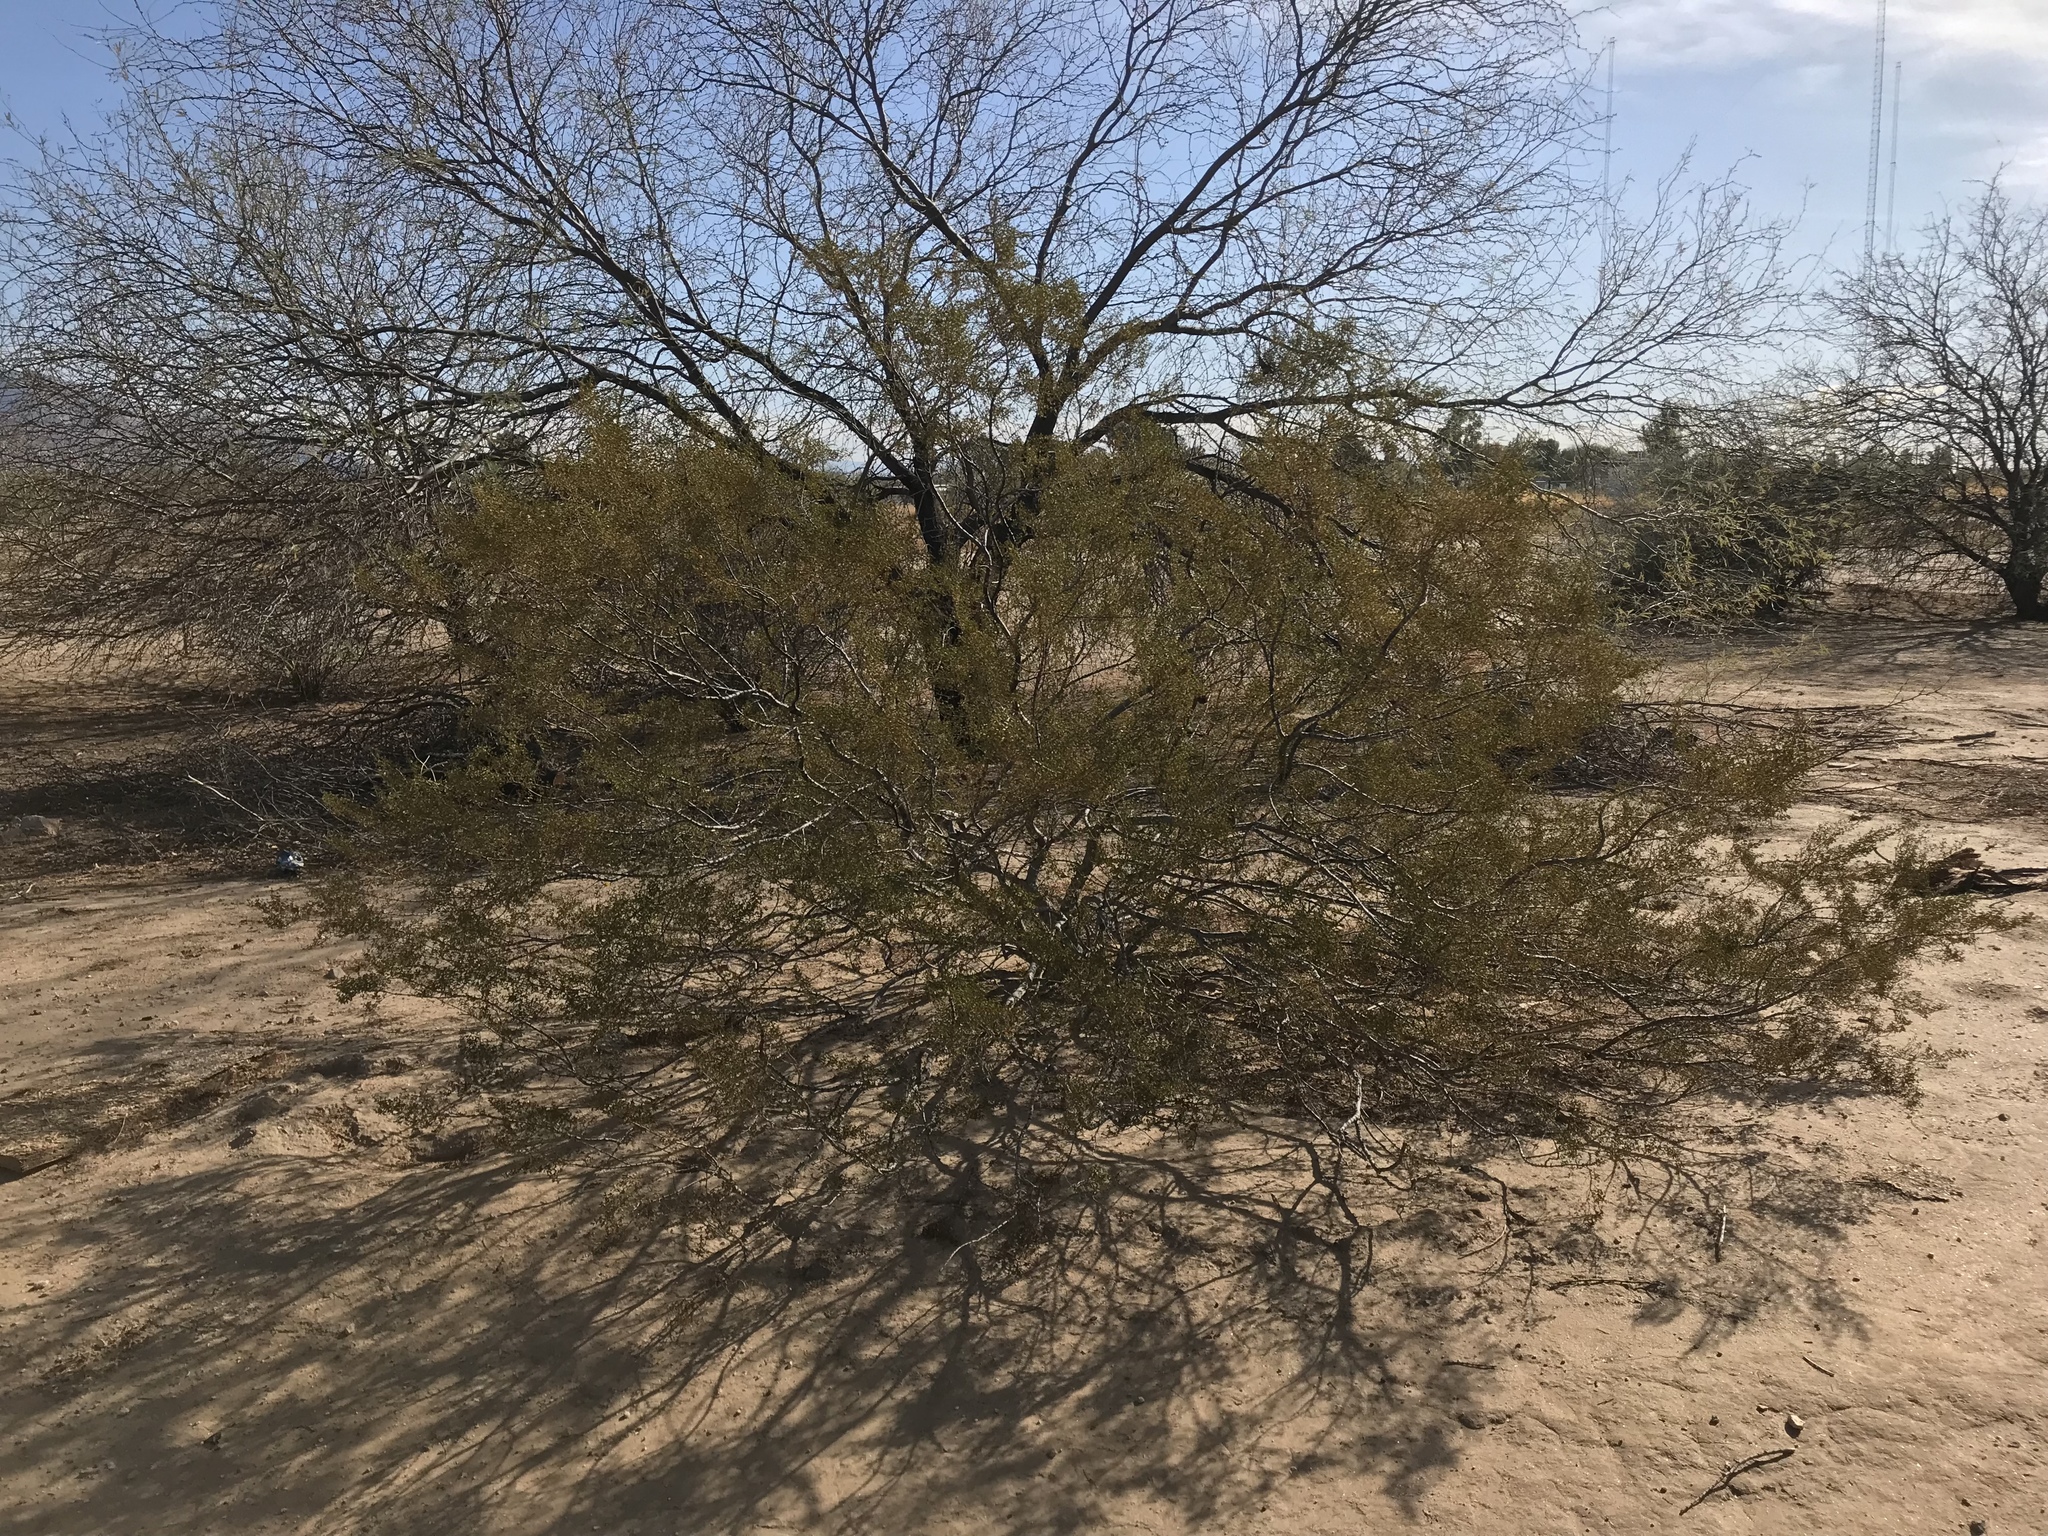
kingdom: Plantae
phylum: Tracheophyta
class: Magnoliopsida
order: Zygophyllales
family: Zygophyllaceae
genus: Larrea
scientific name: Larrea tridentata
